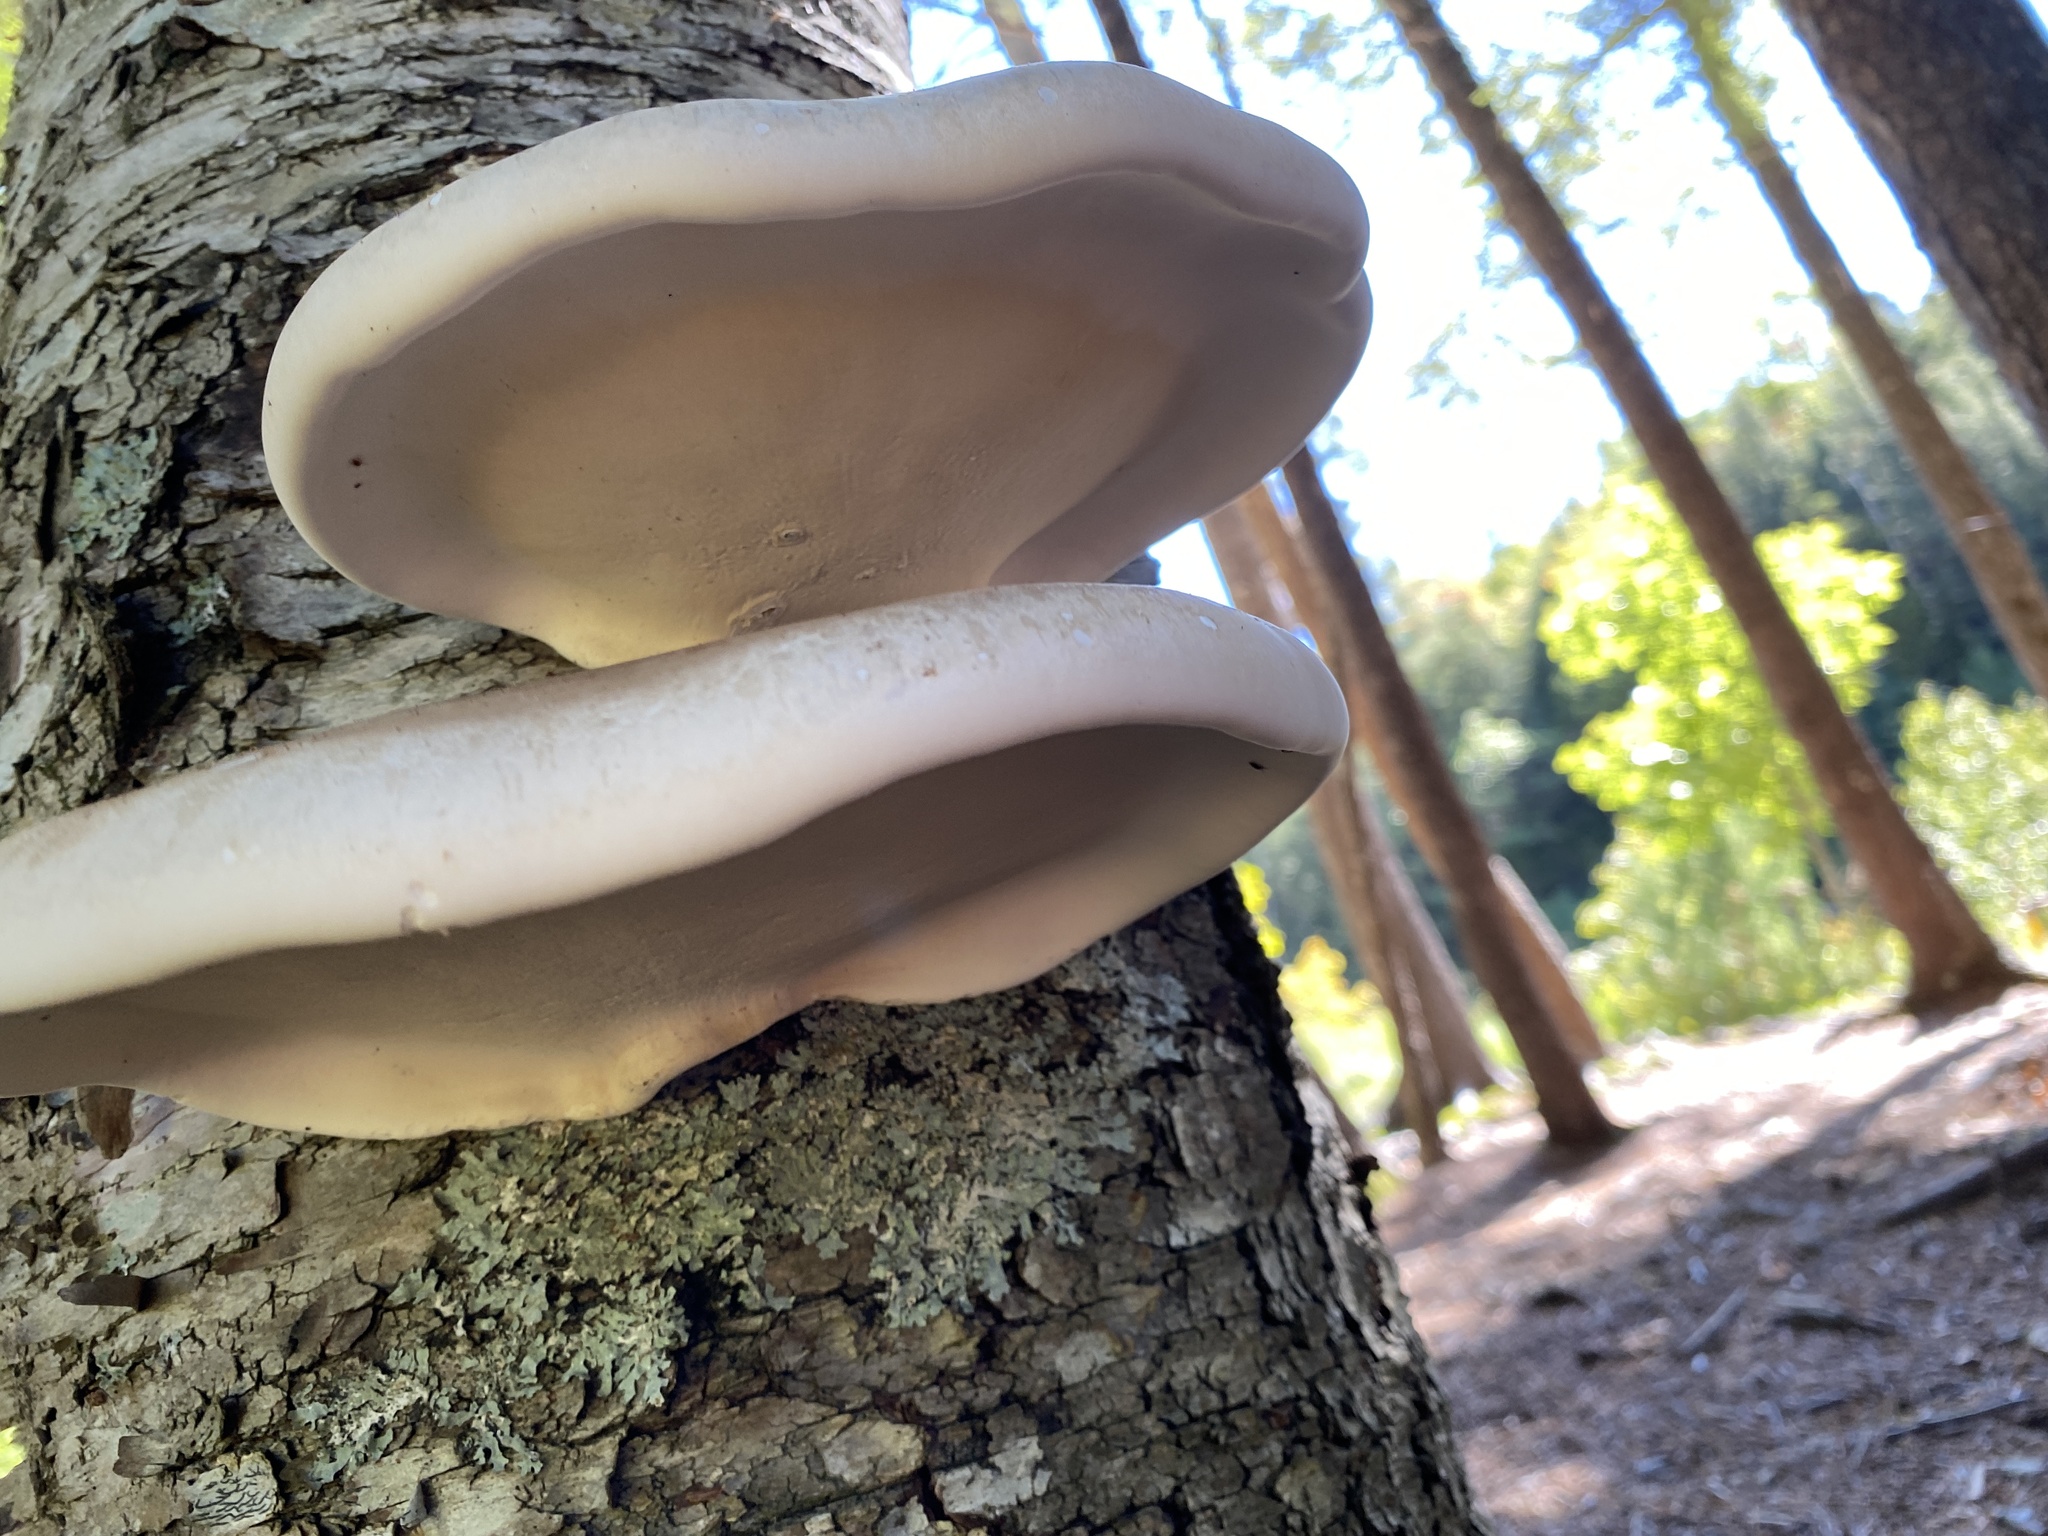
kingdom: Fungi
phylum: Basidiomycota
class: Agaricomycetes
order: Polyporales
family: Fomitopsidaceae
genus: Fomitopsis
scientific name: Fomitopsis betulina
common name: Birch polypore
